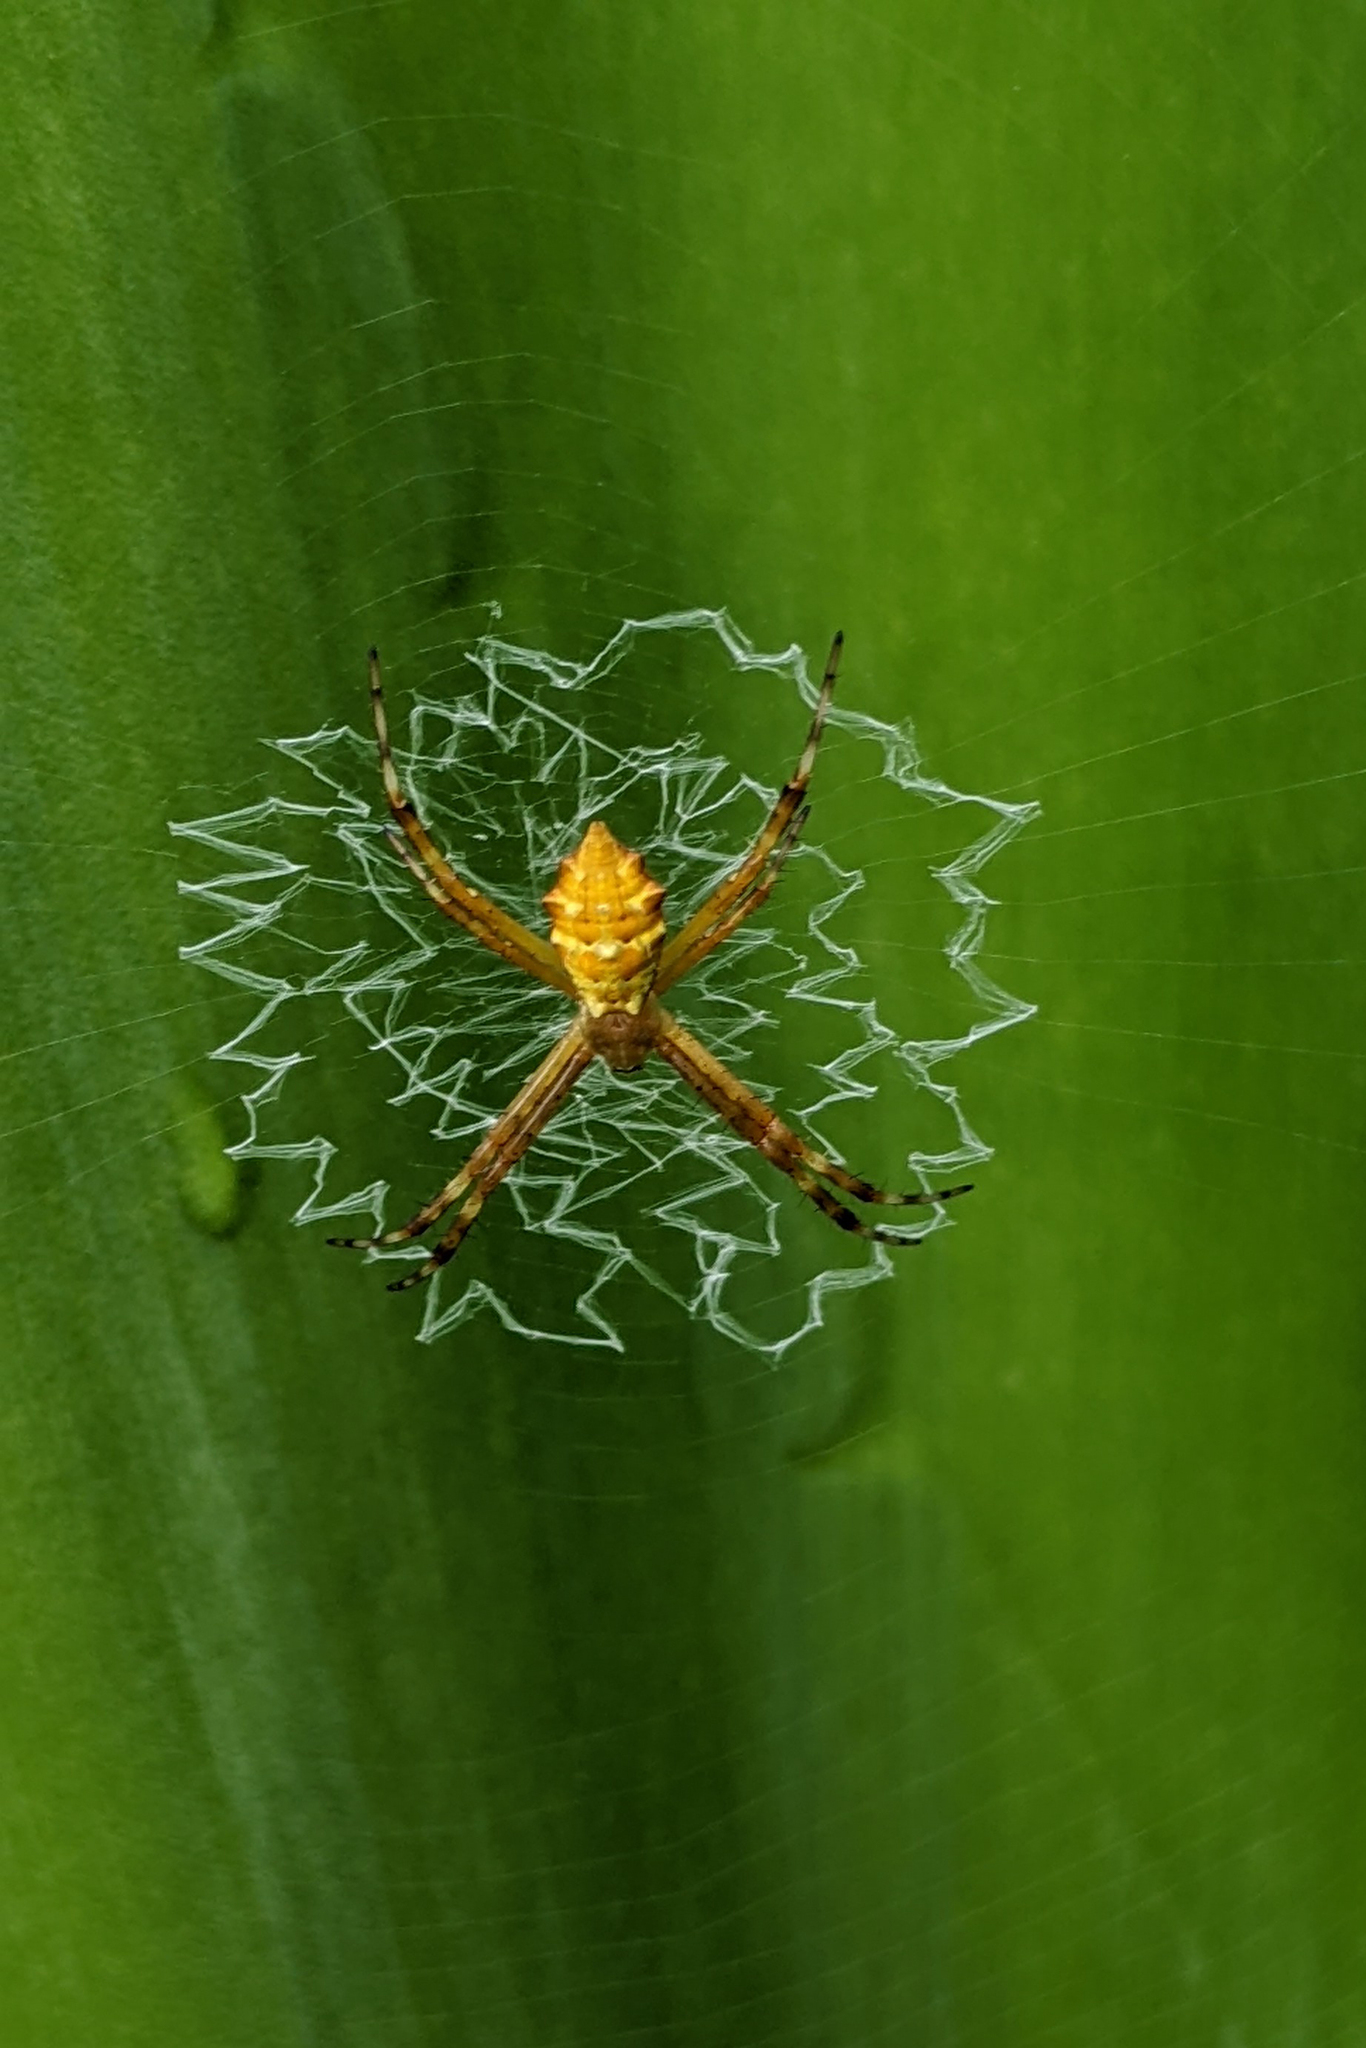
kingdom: Animalia
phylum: Arthropoda
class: Arachnida
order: Araneae
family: Araneidae
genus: Argiope
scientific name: Argiope argentata
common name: Orb weavers
